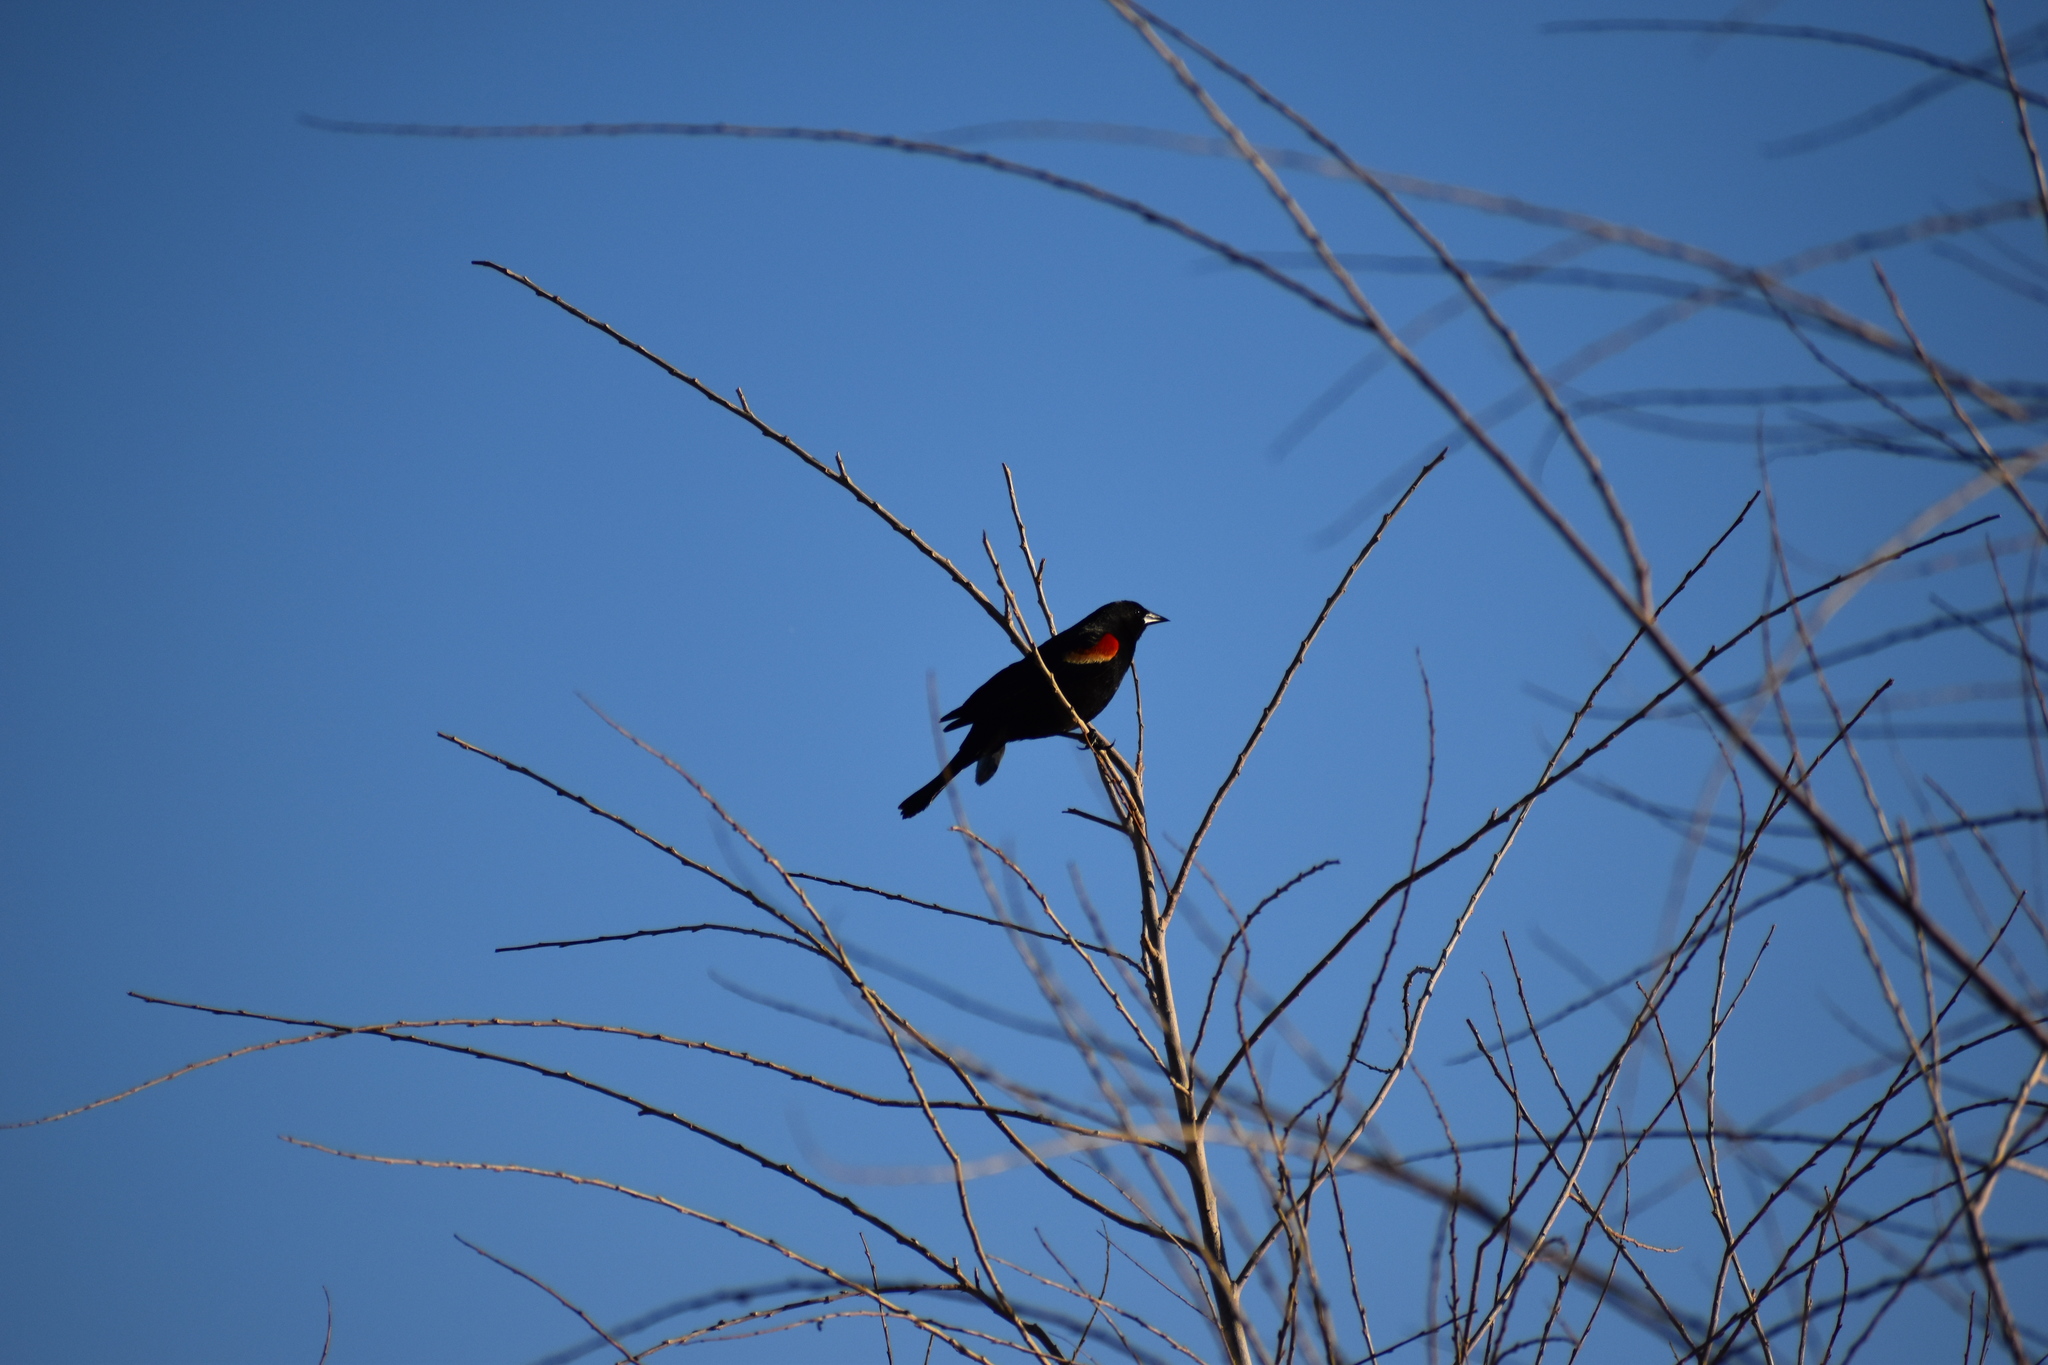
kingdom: Animalia
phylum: Chordata
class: Aves
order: Passeriformes
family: Icteridae
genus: Agelaius
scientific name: Agelaius phoeniceus
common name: Red-winged blackbird
